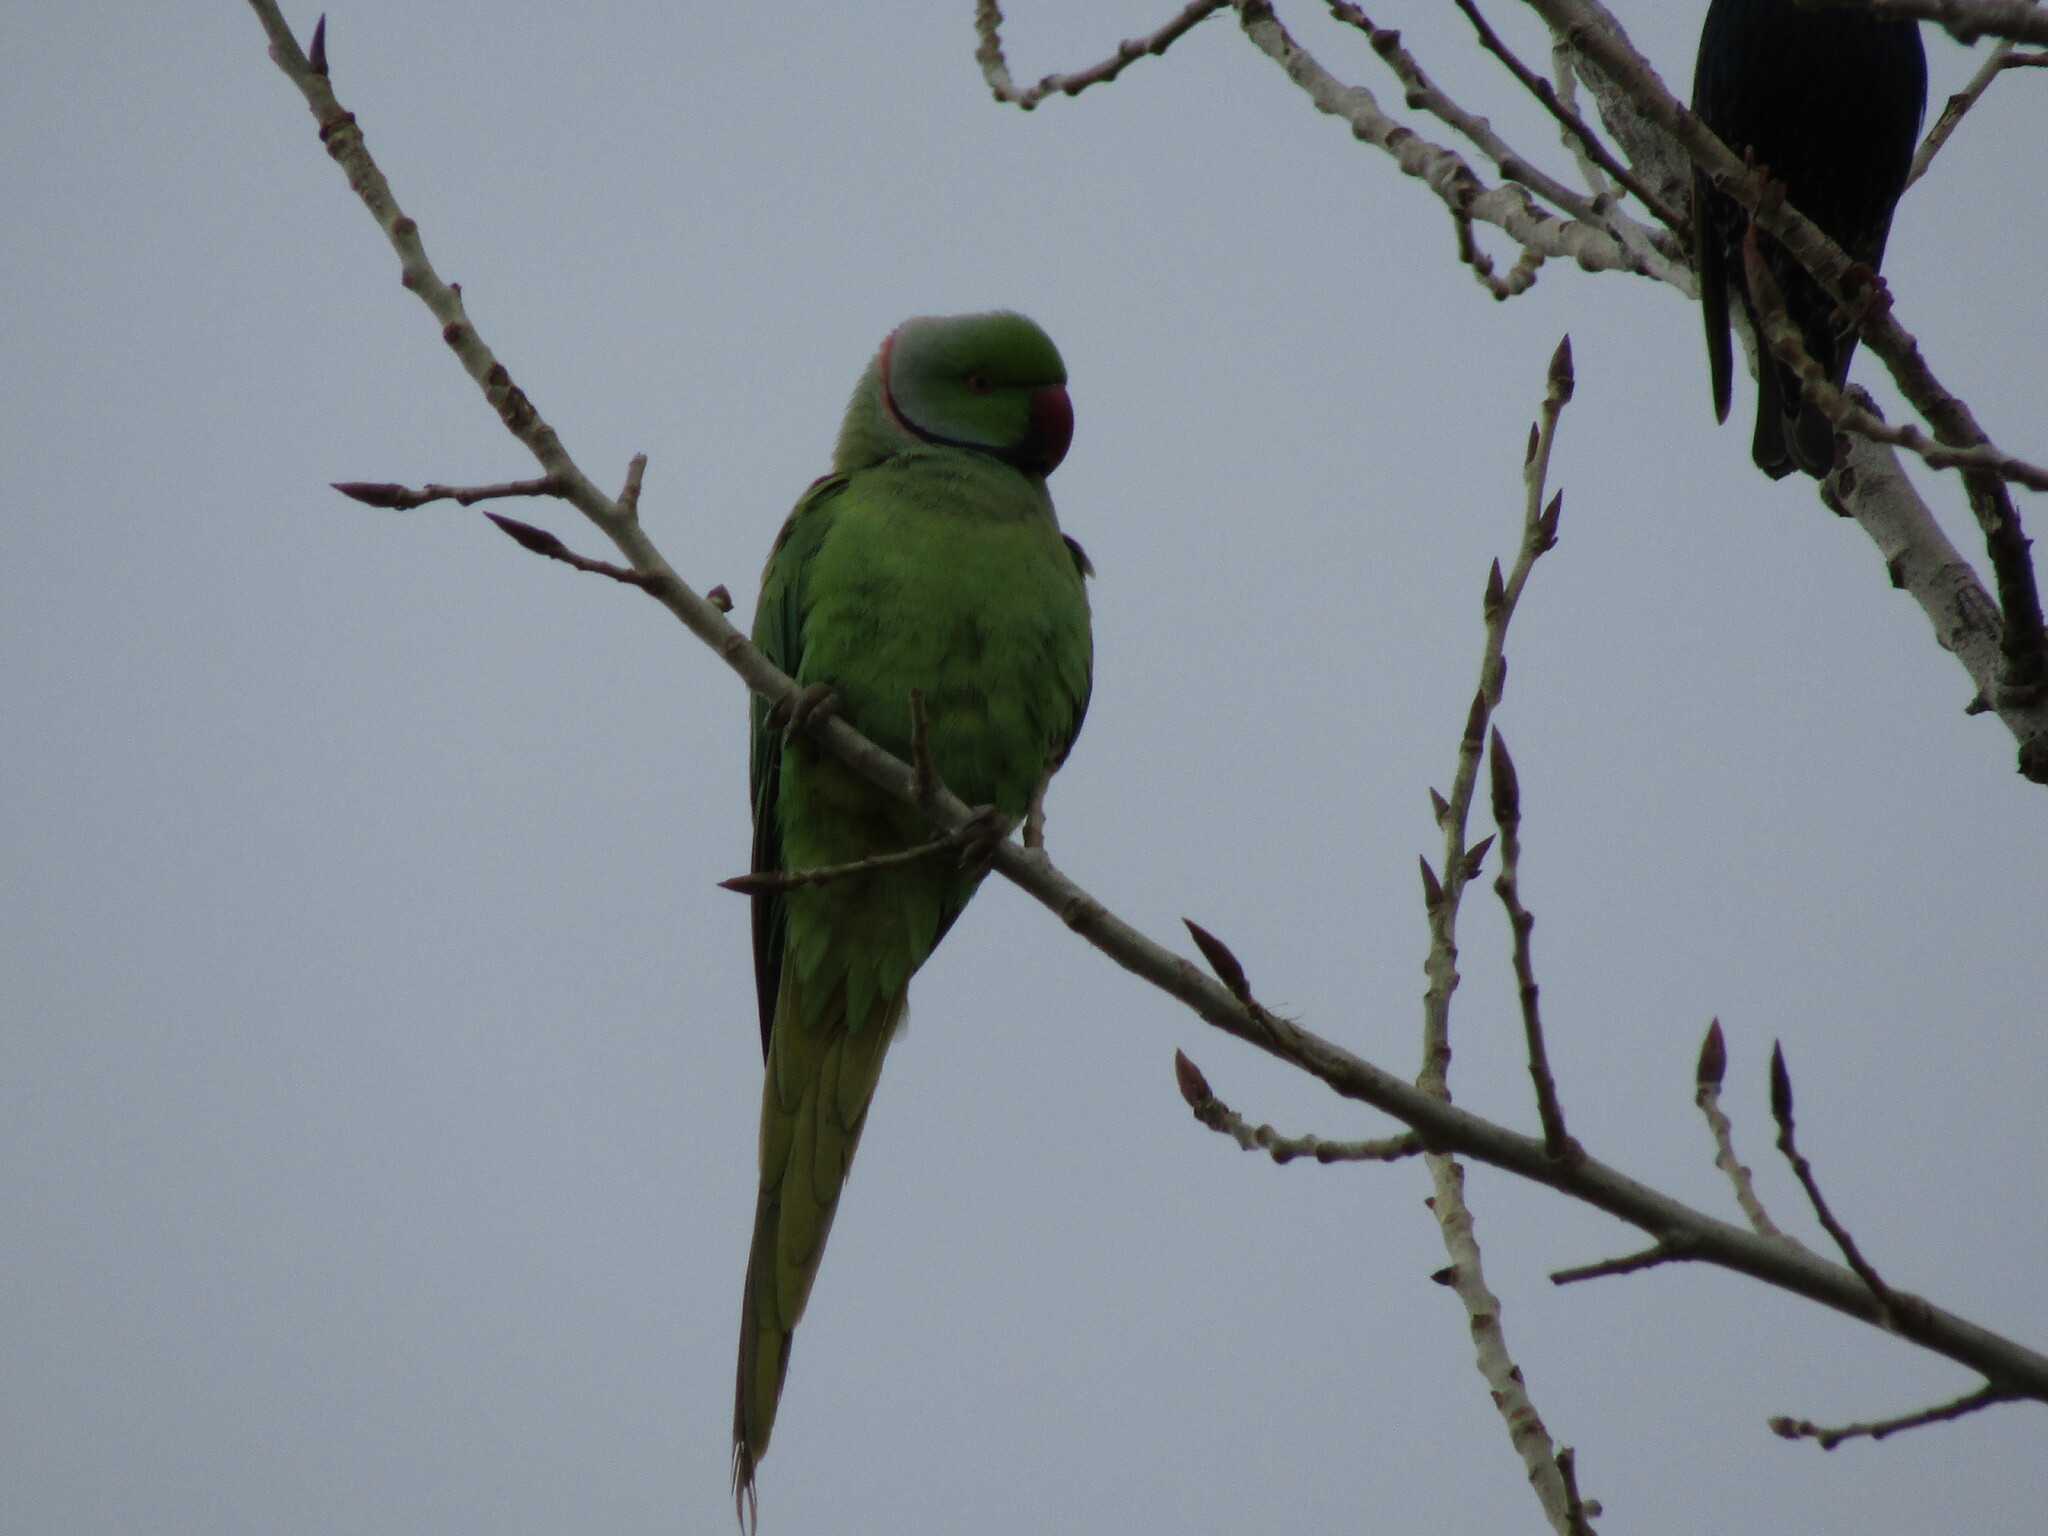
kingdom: Animalia
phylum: Chordata
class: Aves
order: Psittaciformes
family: Psittacidae
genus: Psittacula
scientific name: Psittacula krameri
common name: Rose-ringed parakeet
